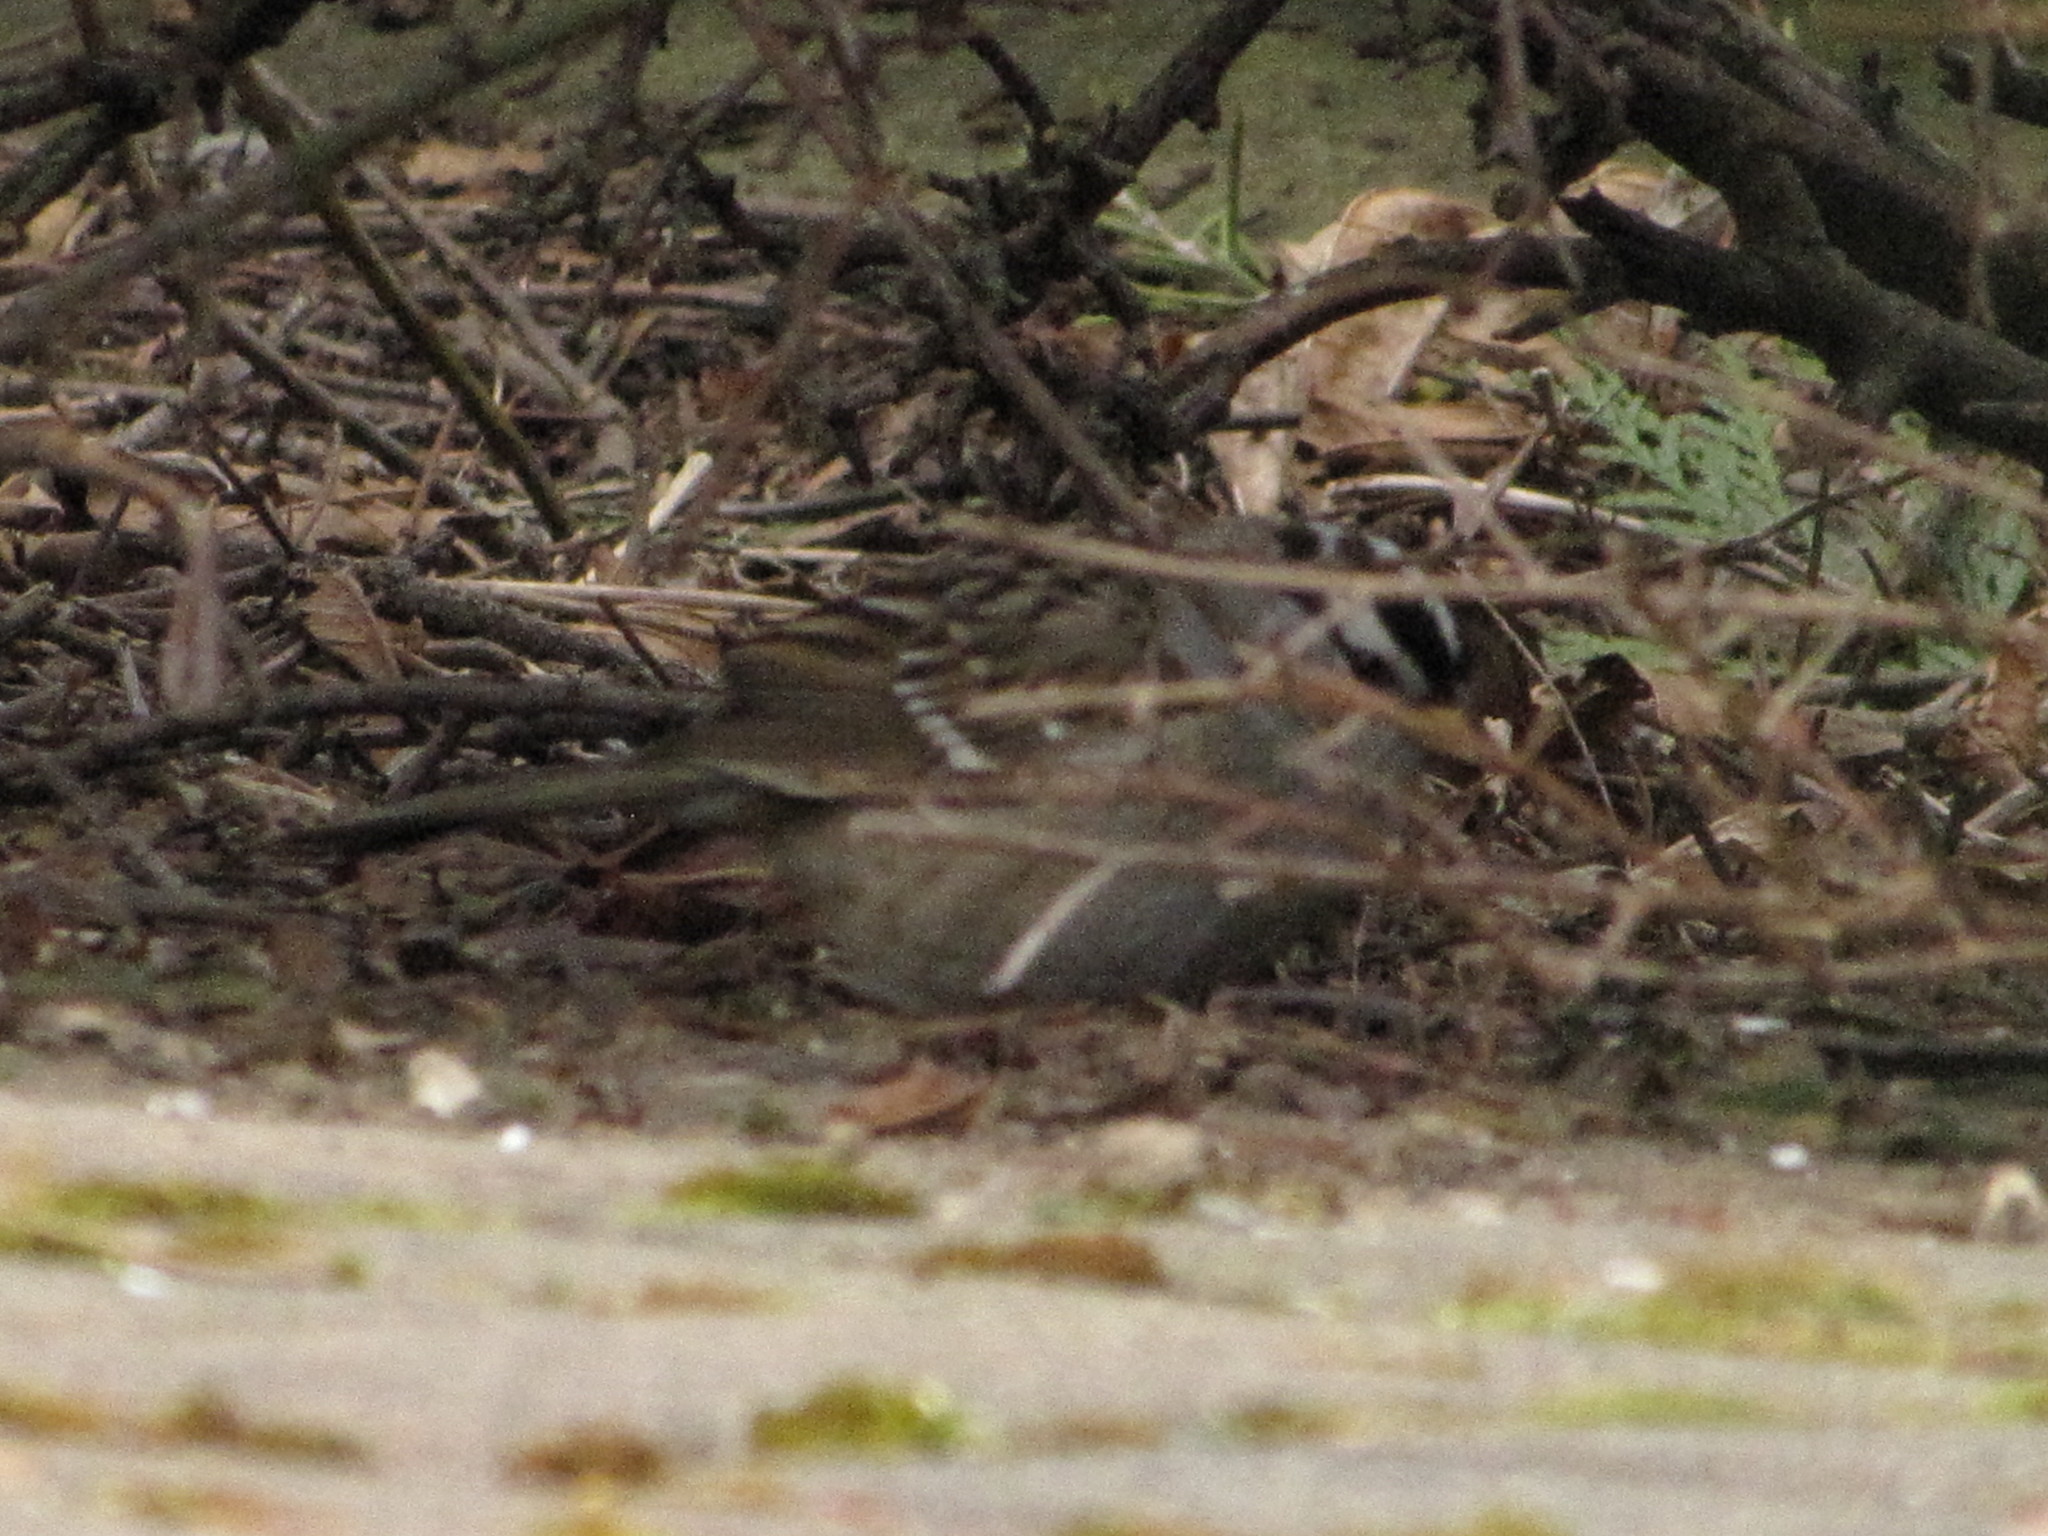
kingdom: Animalia
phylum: Chordata
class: Aves
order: Passeriformes
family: Passerellidae
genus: Zonotrichia
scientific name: Zonotrichia leucophrys
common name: White-crowned sparrow
